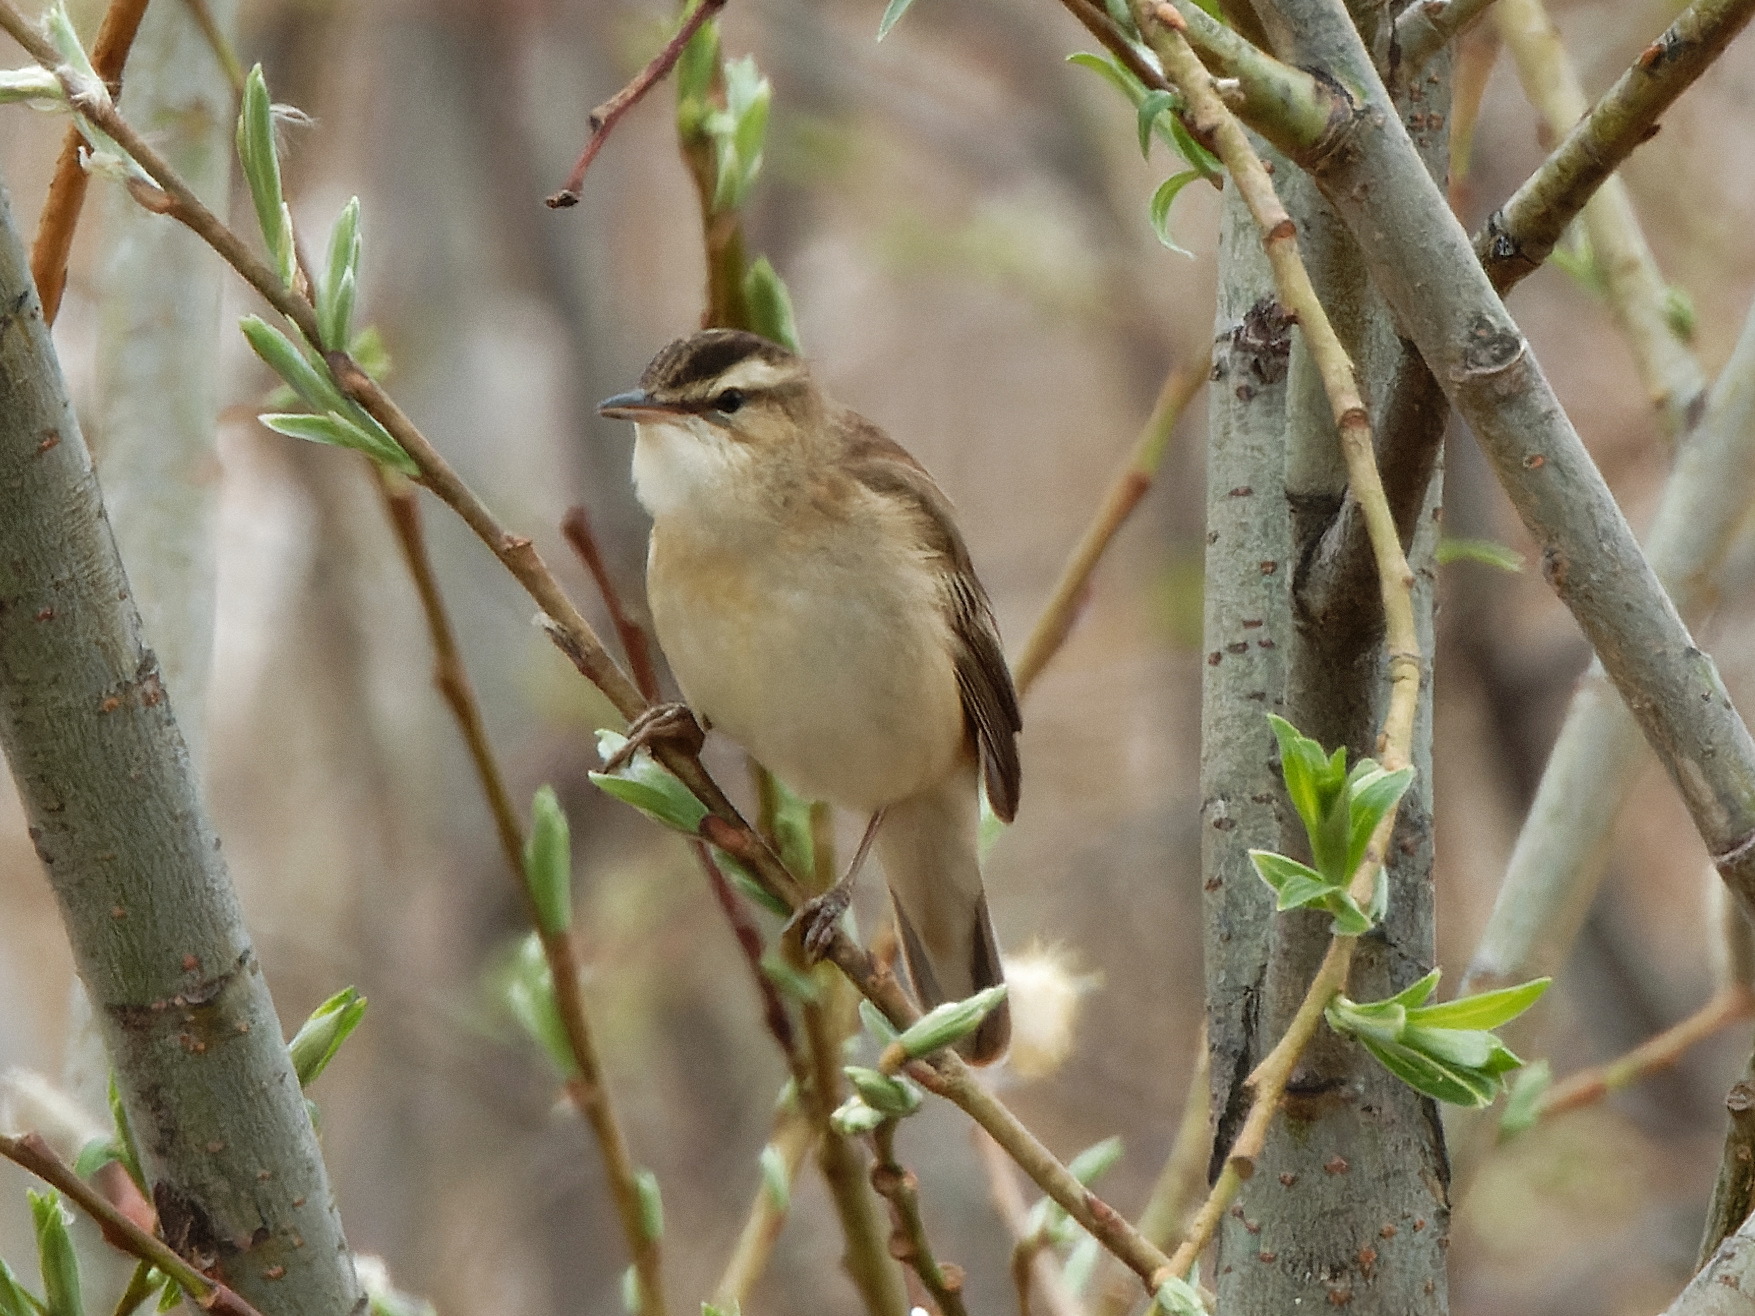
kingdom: Animalia
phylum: Chordata
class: Aves
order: Passeriformes
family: Acrocephalidae
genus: Acrocephalus
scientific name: Acrocephalus schoenobaenus
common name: Sedge warbler
